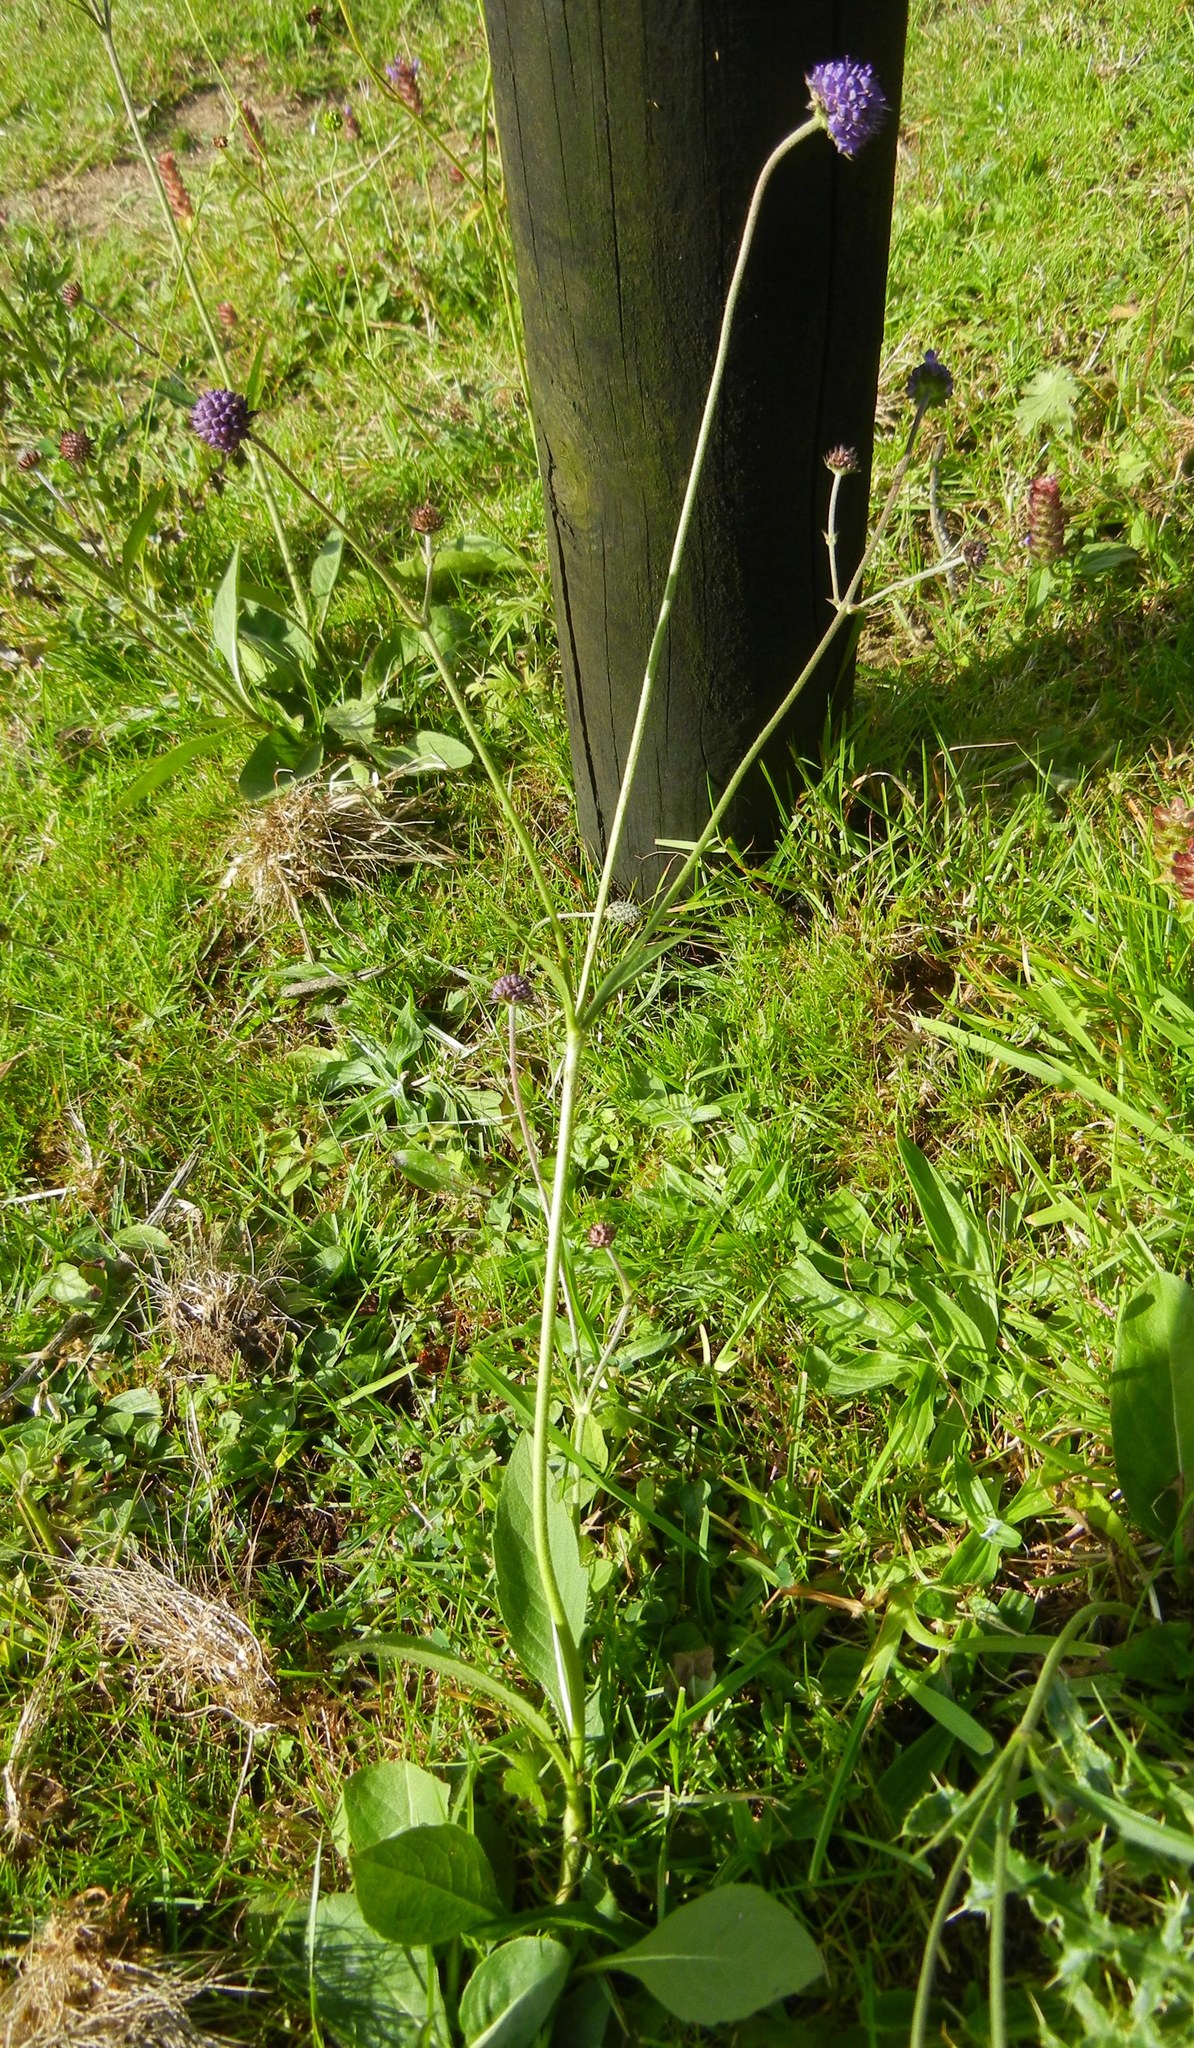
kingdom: Plantae
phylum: Tracheophyta
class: Magnoliopsida
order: Dipsacales
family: Caprifoliaceae
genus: Succisa
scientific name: Succisa pratensis
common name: Devil's-bit
